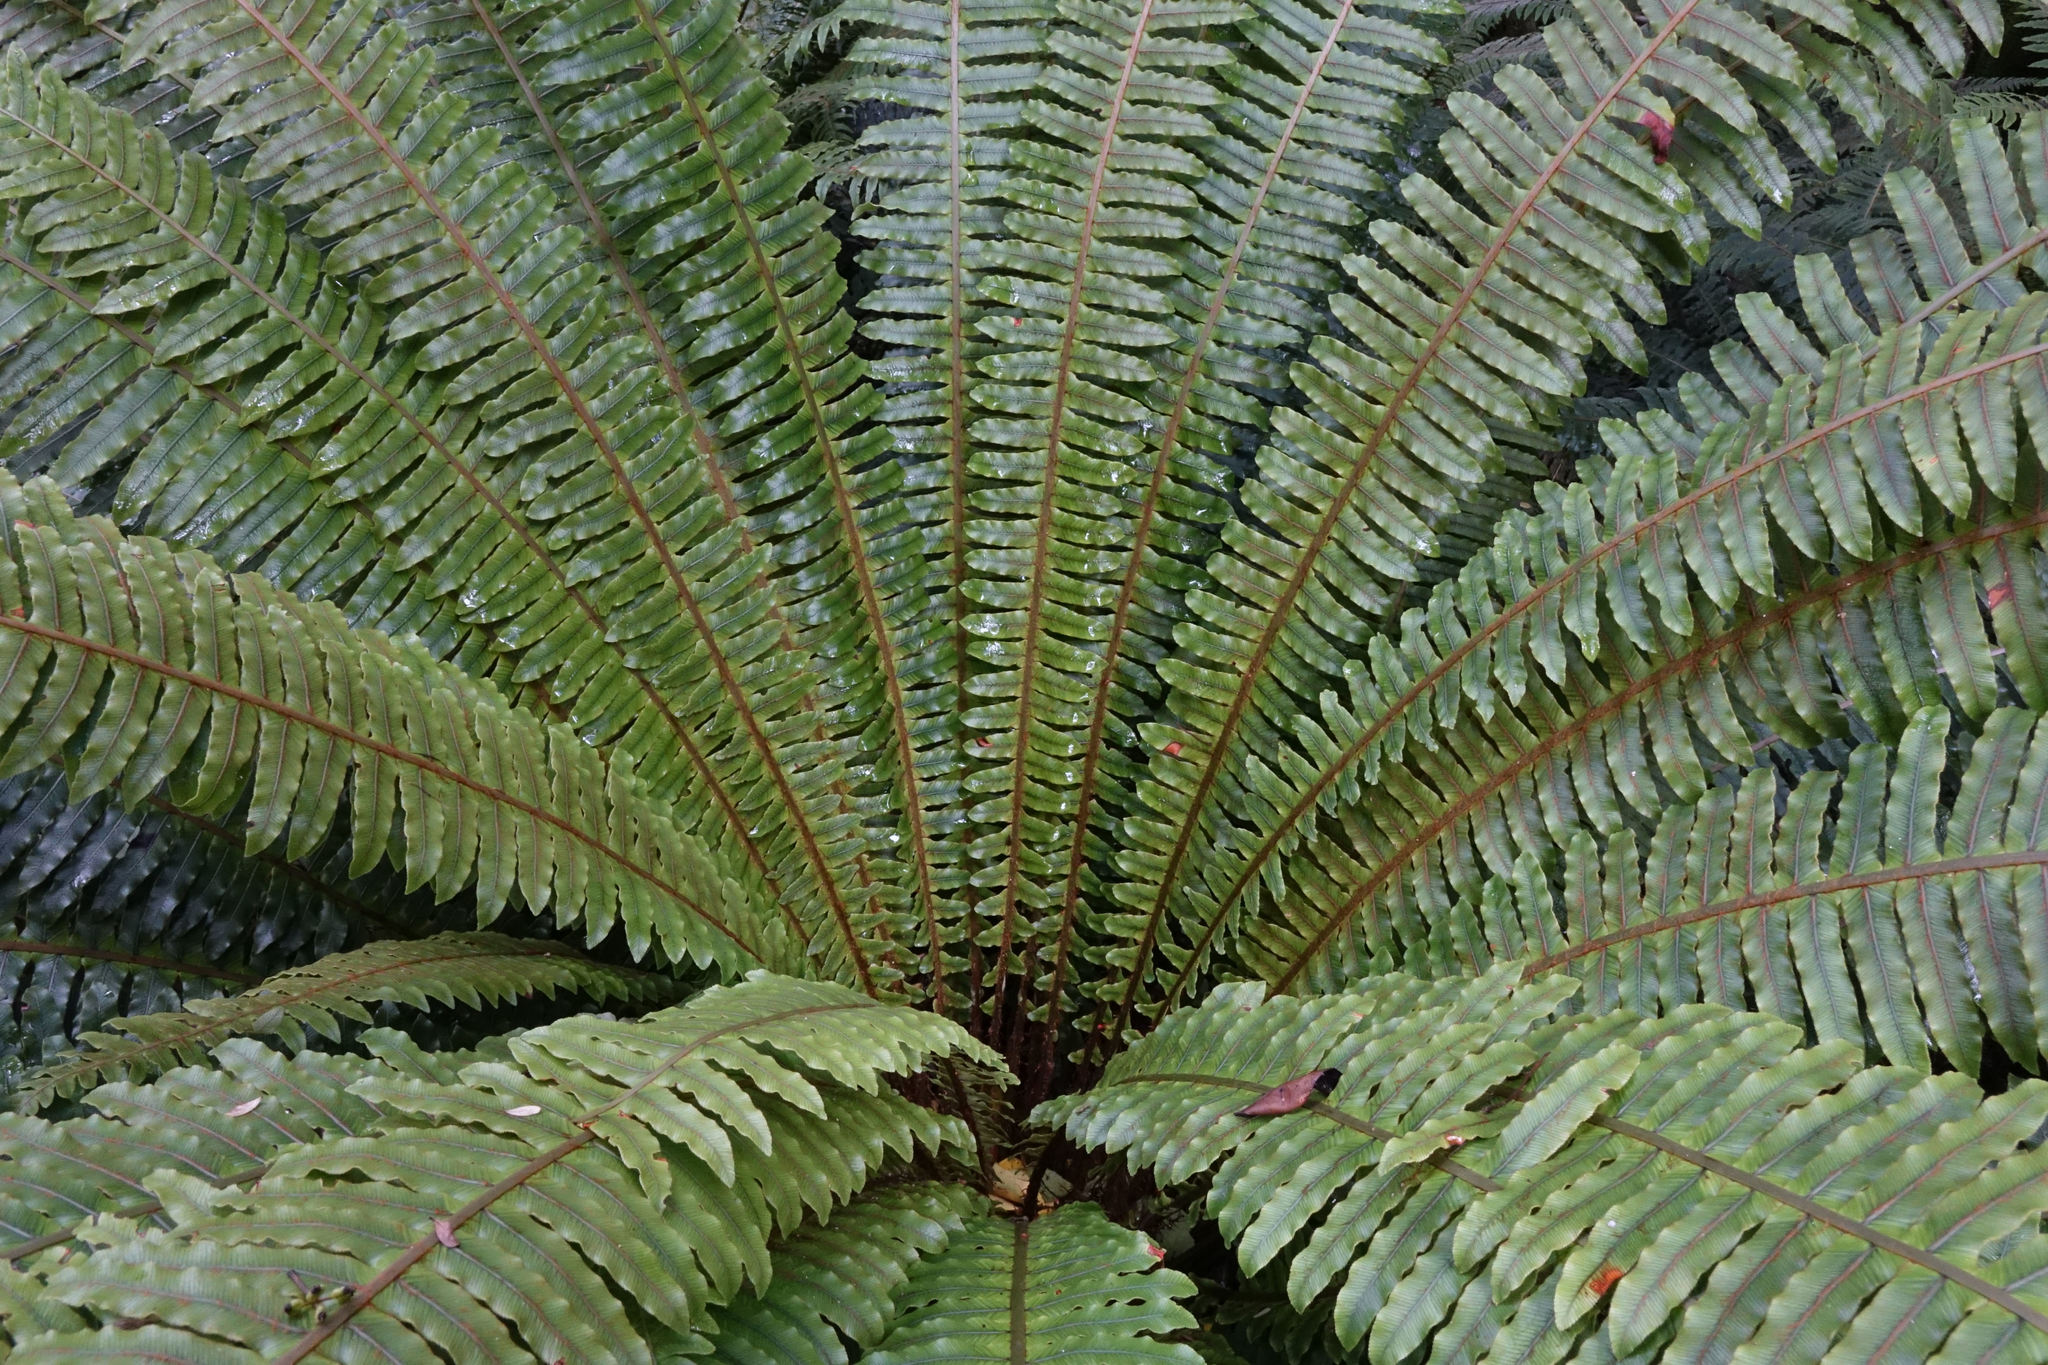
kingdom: Plantae
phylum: Tracheophyta
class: Polypodiopsida
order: Polypodiales
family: Blechnaceae
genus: Lomaria
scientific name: Lomaria discolor
